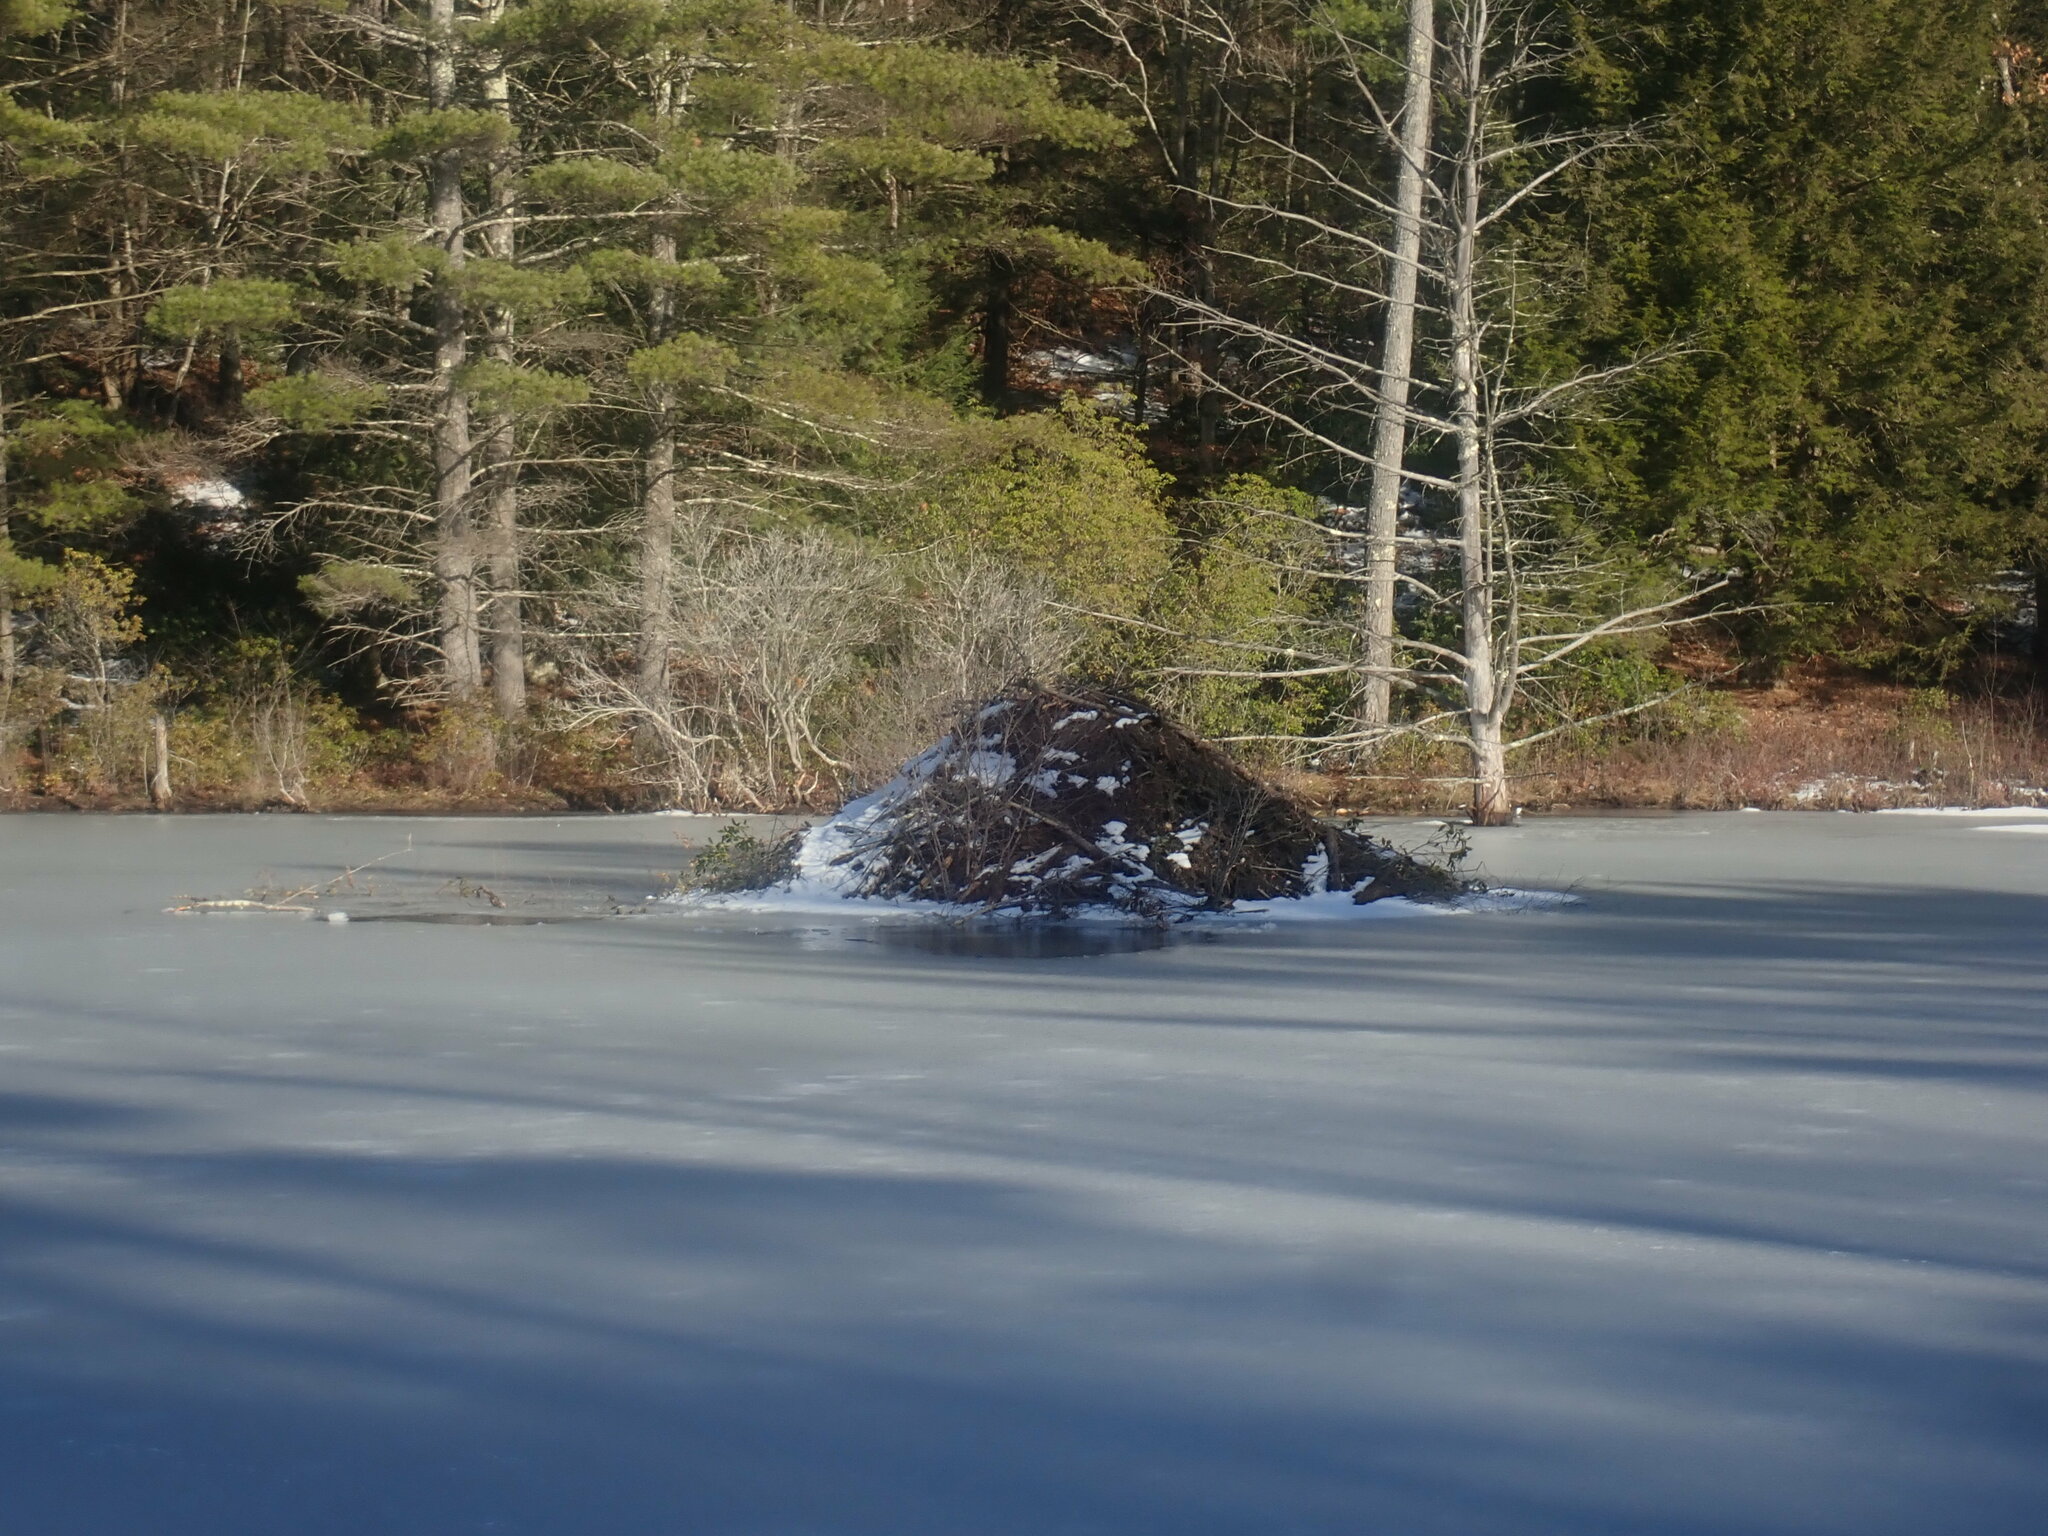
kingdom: Animalia
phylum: Chordata
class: Mammalia
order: Rodentia
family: Castoridae
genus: Castor
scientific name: Castor canadensis
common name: American beaver
